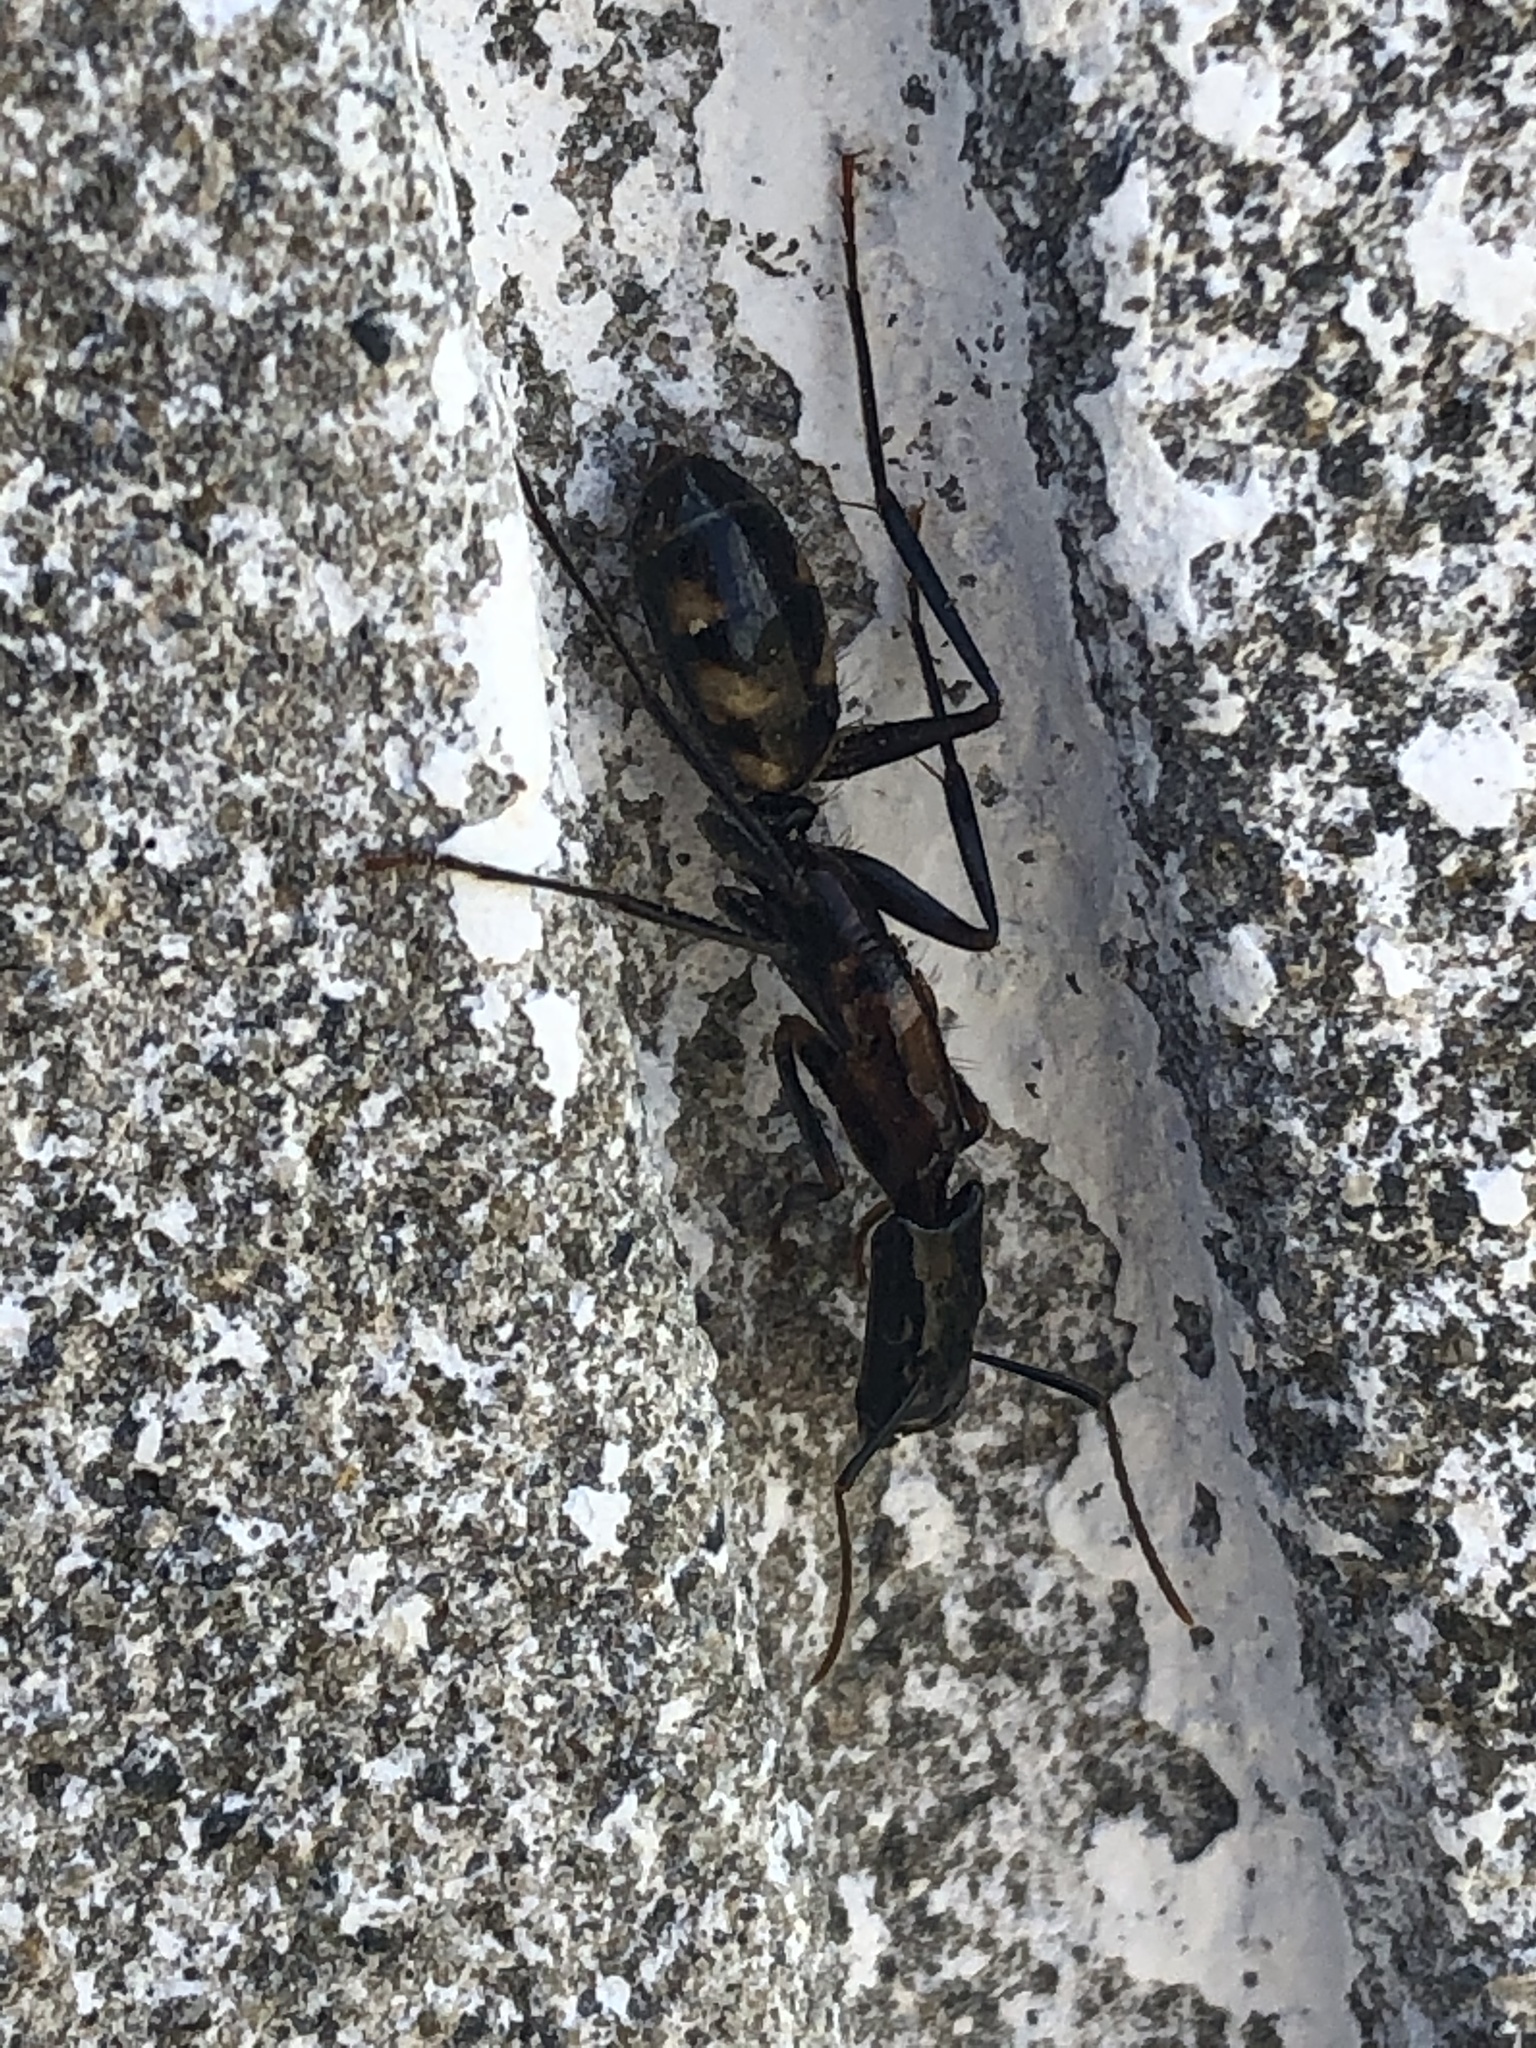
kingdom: Animalia
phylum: Arthropoda
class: Insecta
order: Hymenoptera
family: Formicidae
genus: Camponotus
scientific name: Camponotus mirabilis
